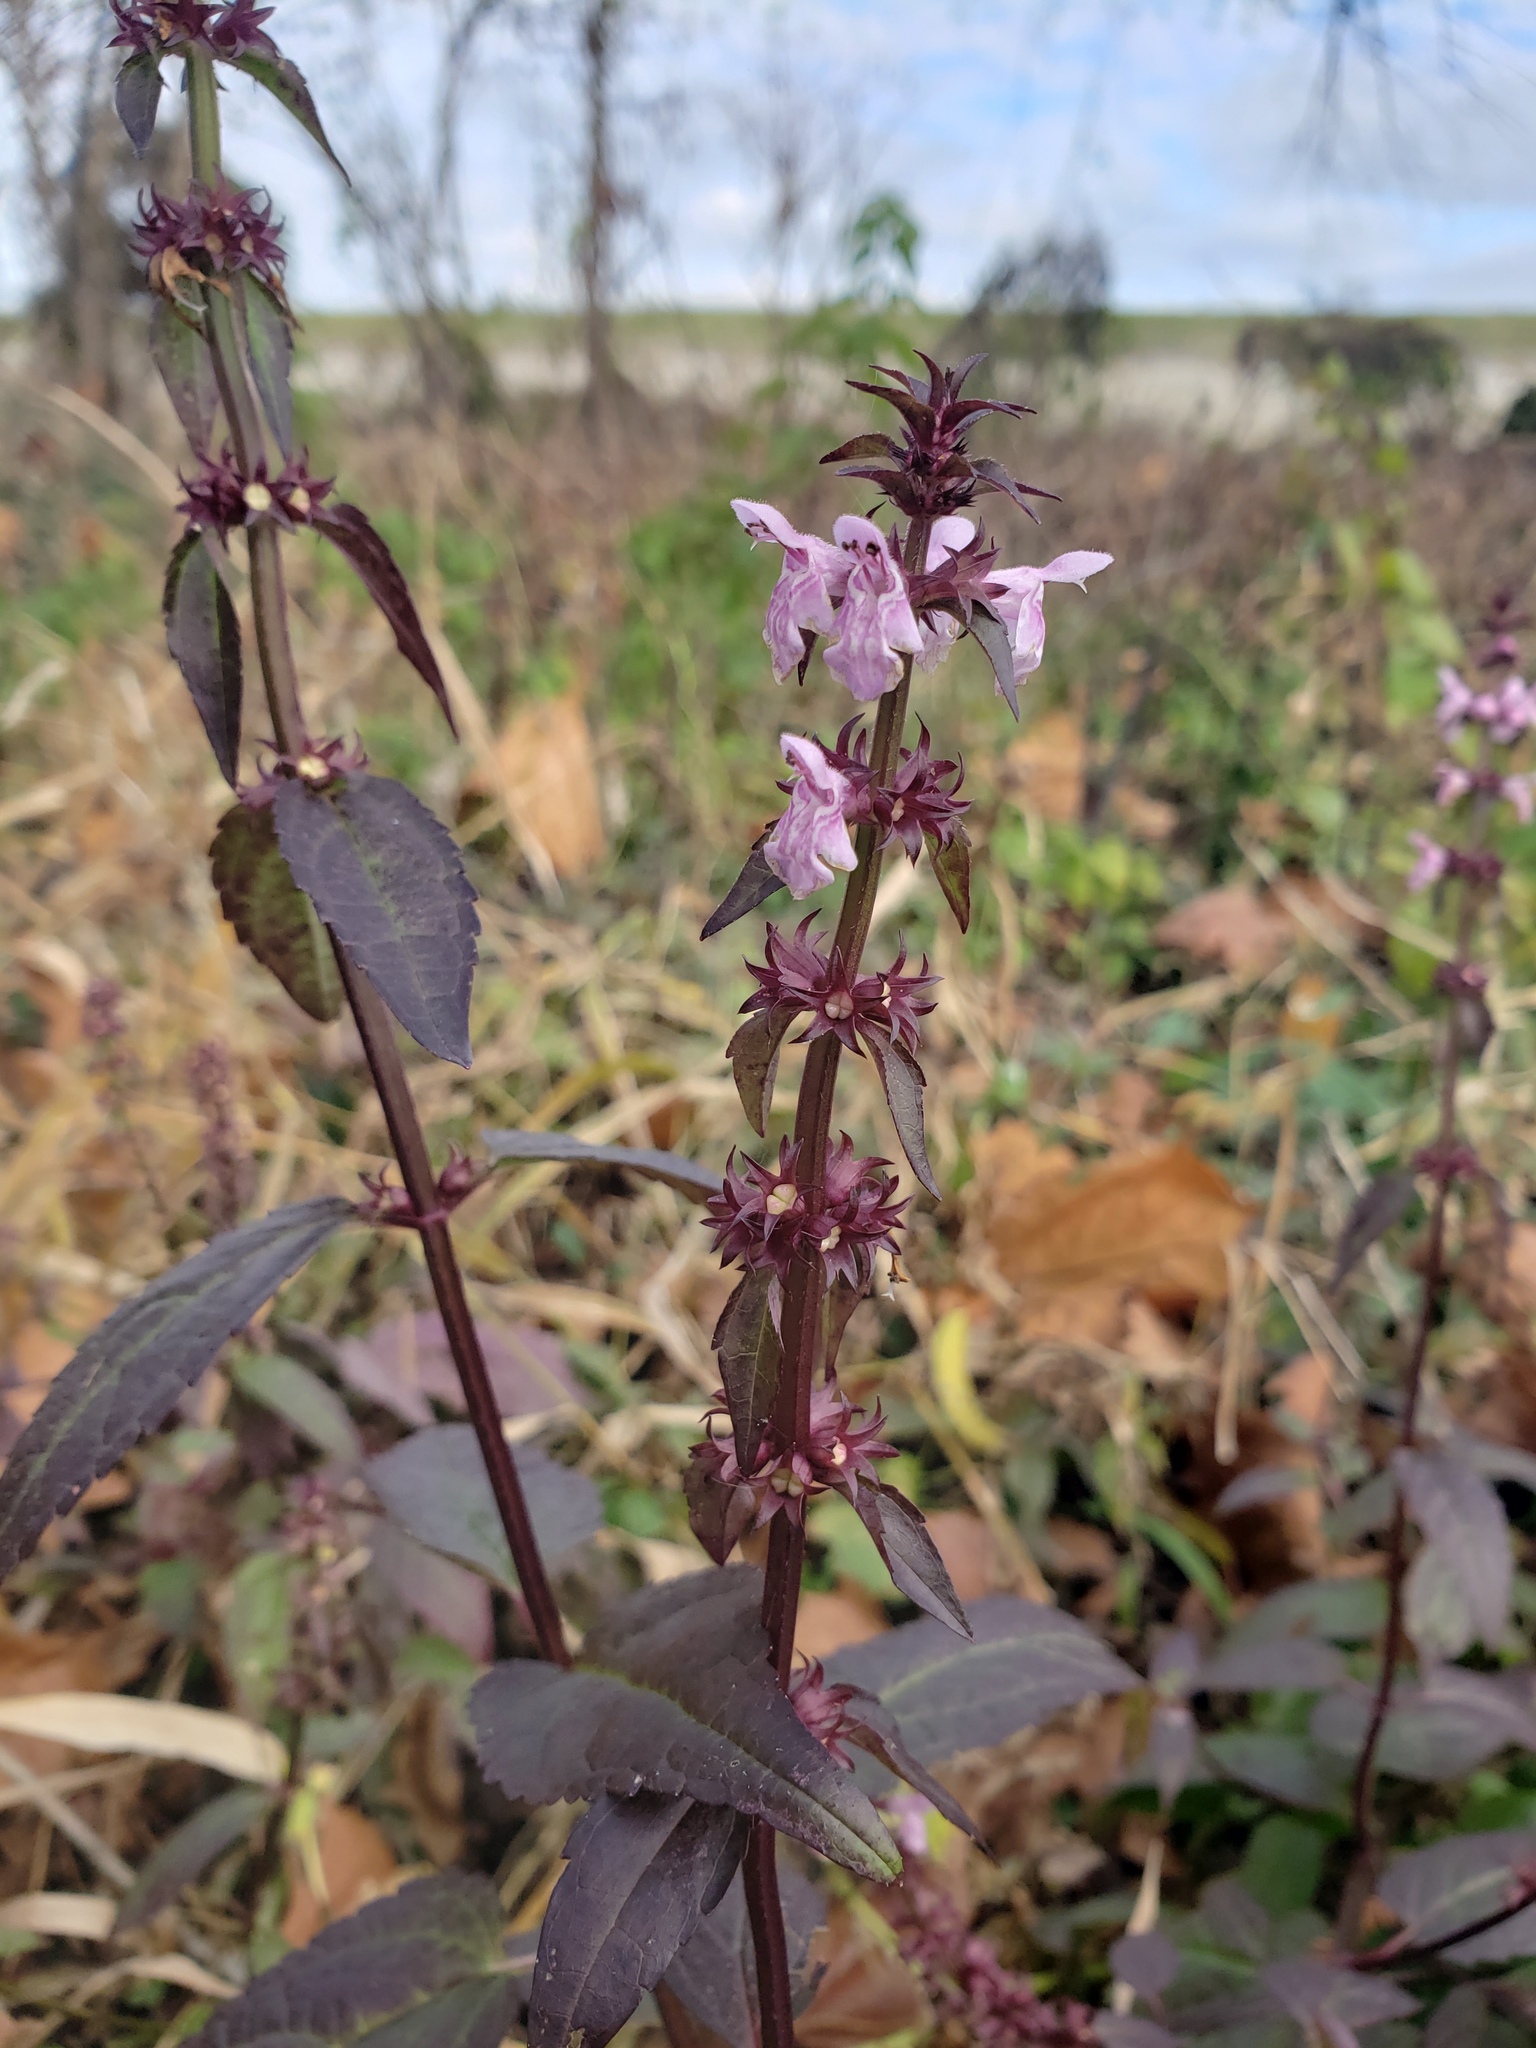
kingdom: Plantae
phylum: Tracheophyta
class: Magnoliopsida
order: Lamiales
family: Lamiaceae
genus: Stachys
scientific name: Stachys floridana
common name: Florida betony
